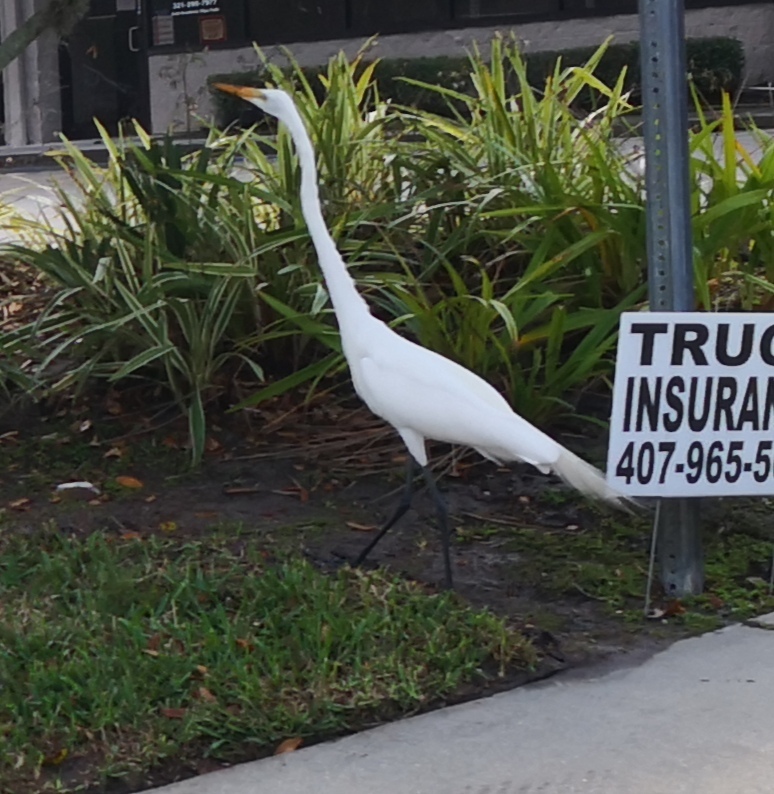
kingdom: Animalia
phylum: Chordata
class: Aves
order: Pelecaniformes
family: Ardeidae
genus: Ardea
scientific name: Ardea alba
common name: Great egret
